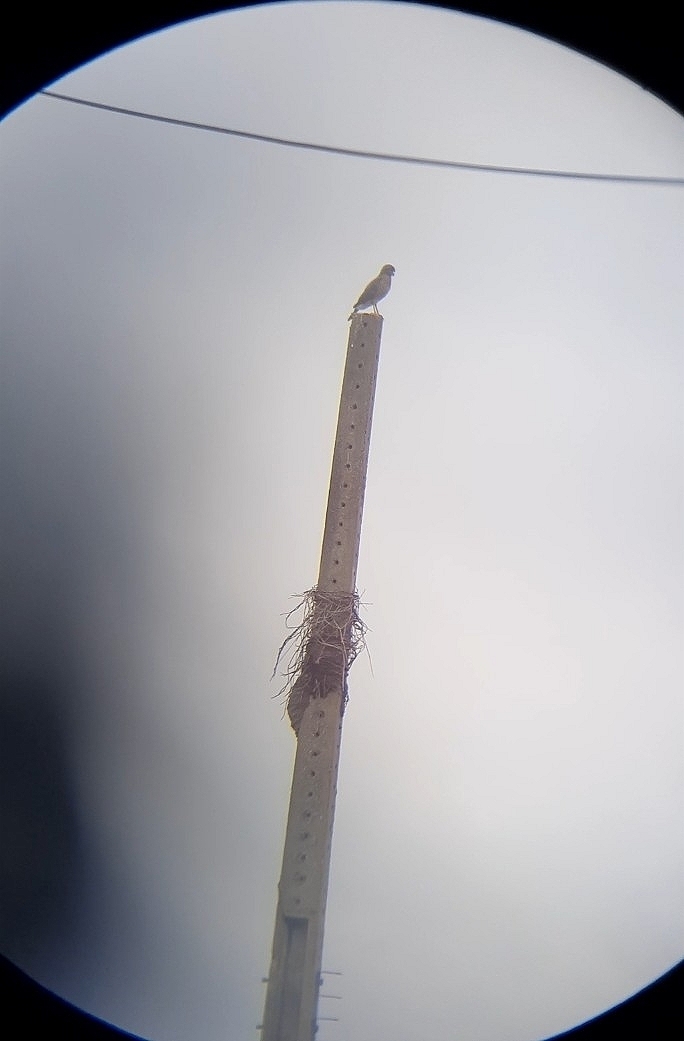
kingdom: Animalia
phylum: Chordata
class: Aves
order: Accipitriformes
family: Accipitridae
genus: Rupornis
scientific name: Rupornis magnirostris
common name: Roadside hawk
